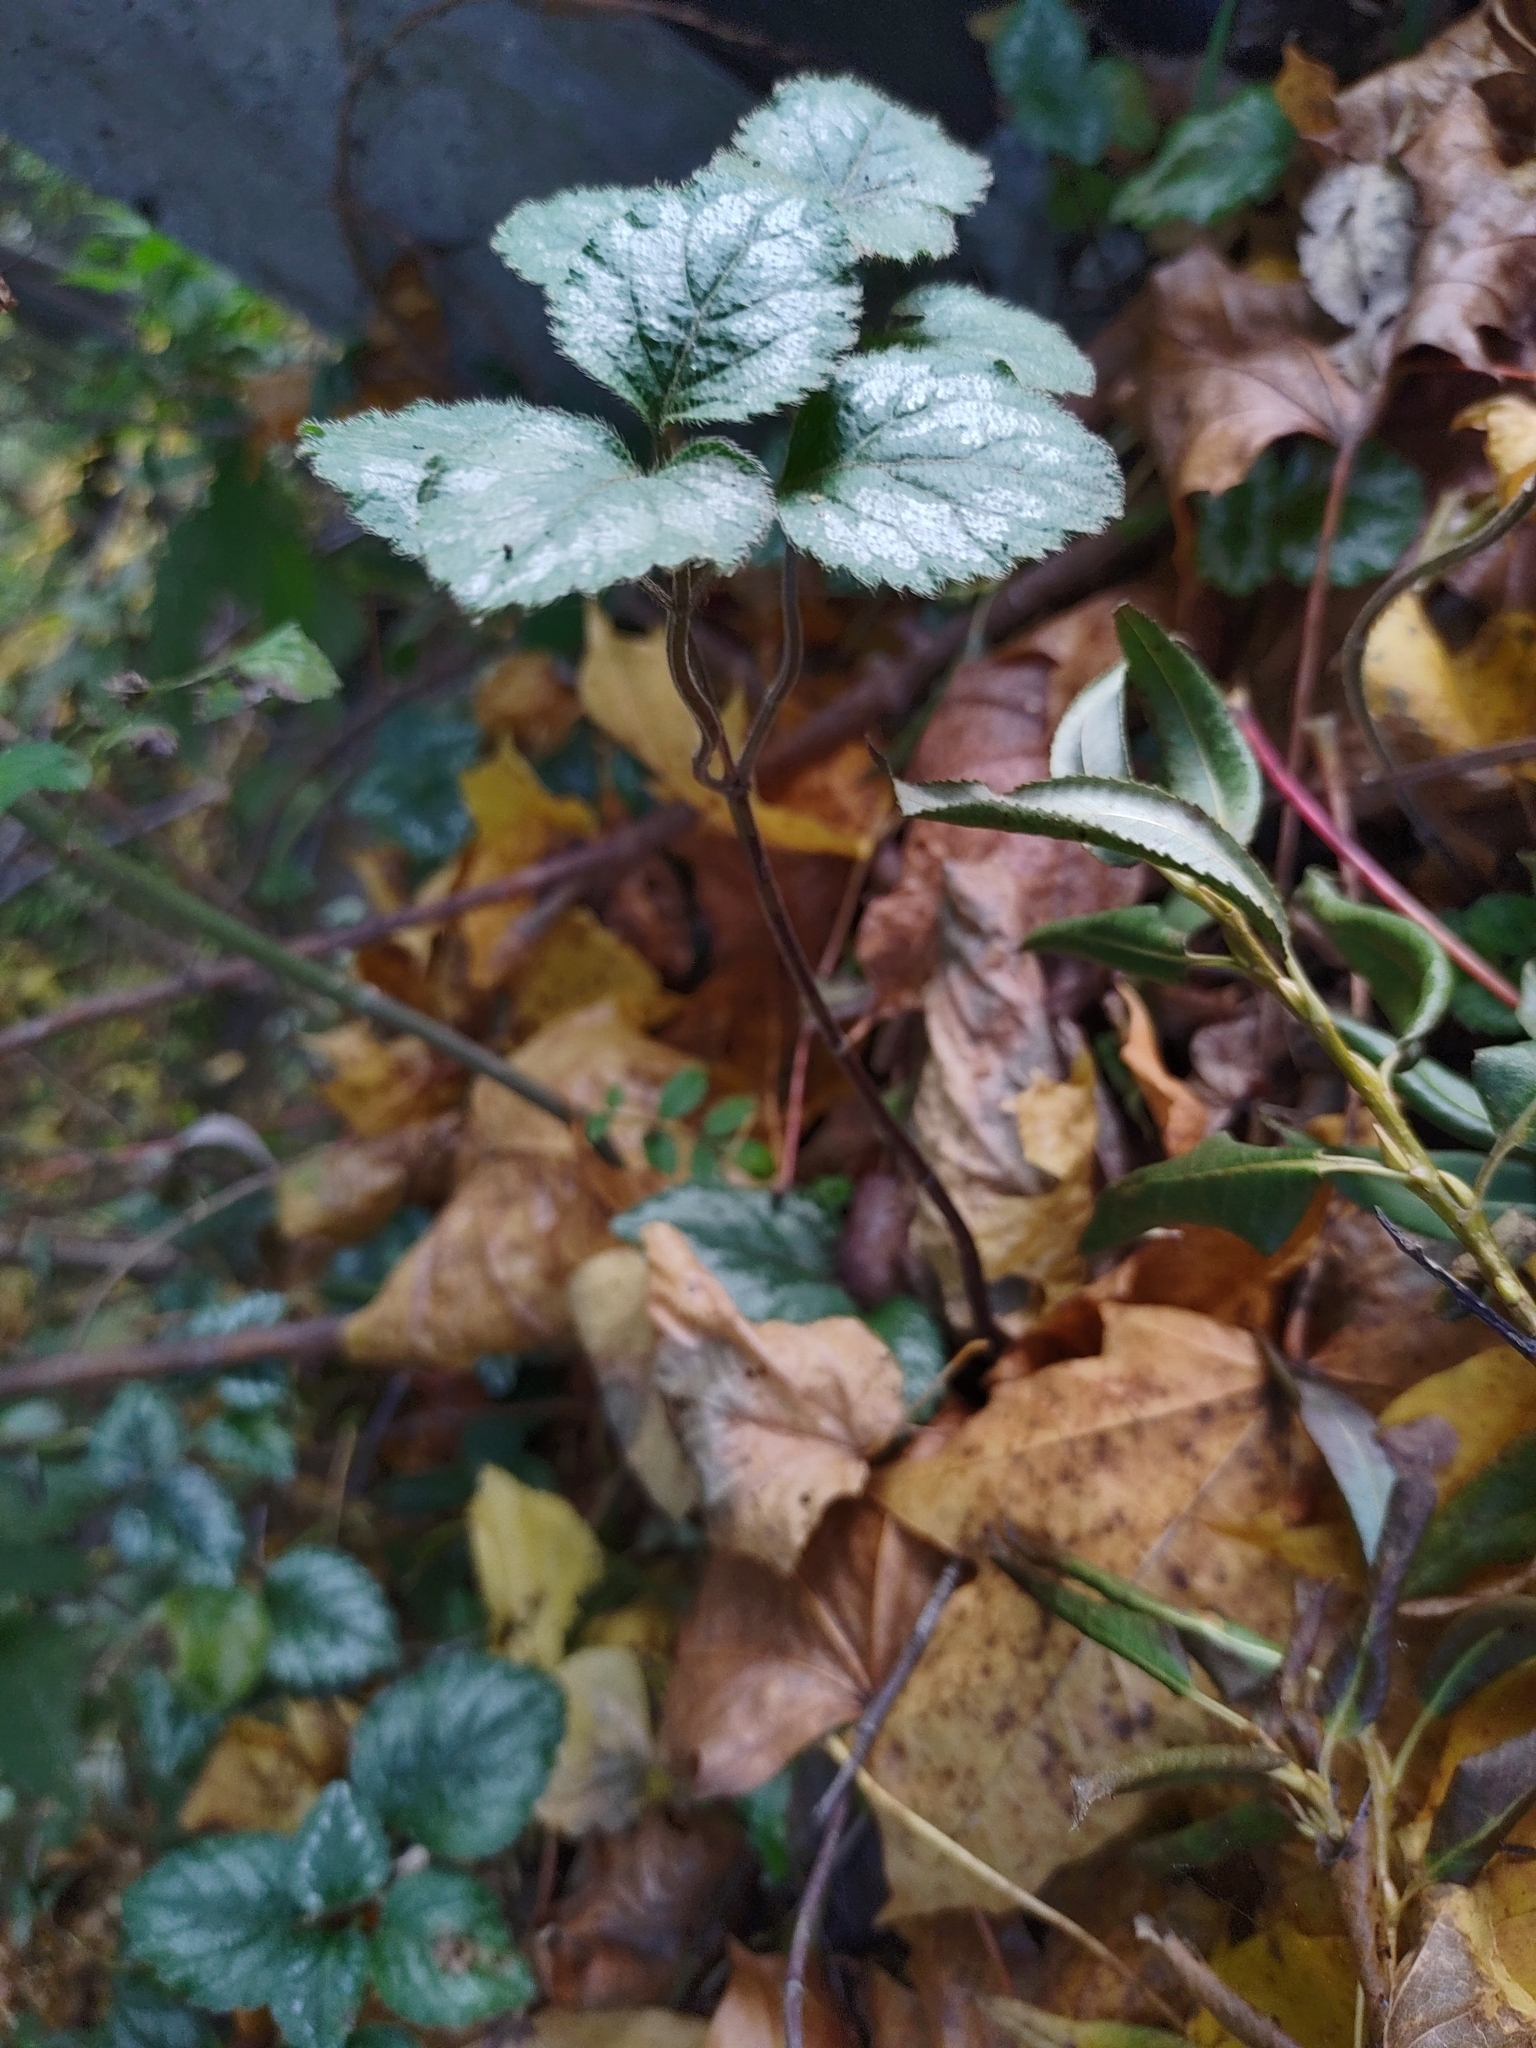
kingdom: Plantae
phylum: Tracheophyta
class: Magnoliopsida
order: Lamiales
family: Lamiaceae
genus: Lamium
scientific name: Lamium galeobdolon
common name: Yellow archangel
